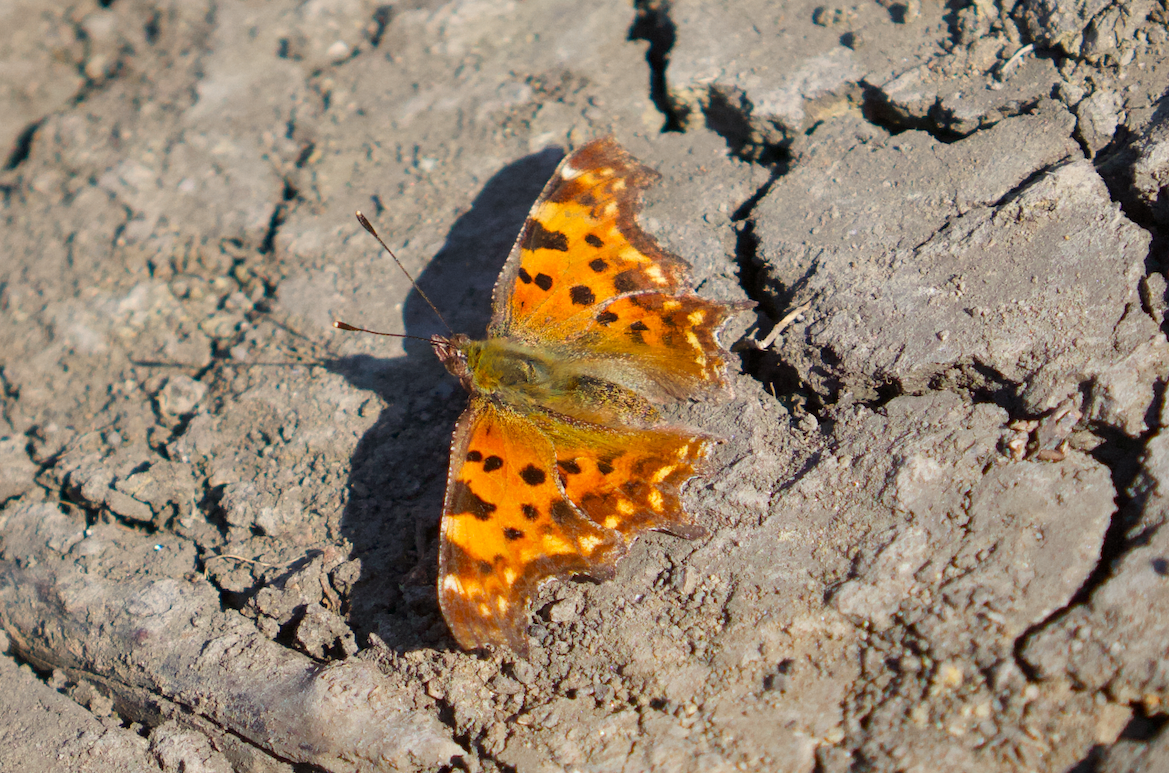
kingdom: Animalia
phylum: Arthropoda
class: Insecta
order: Lepidoptera
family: Nymphalidae
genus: Polygonia
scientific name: Polygonia c-album
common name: Comma
